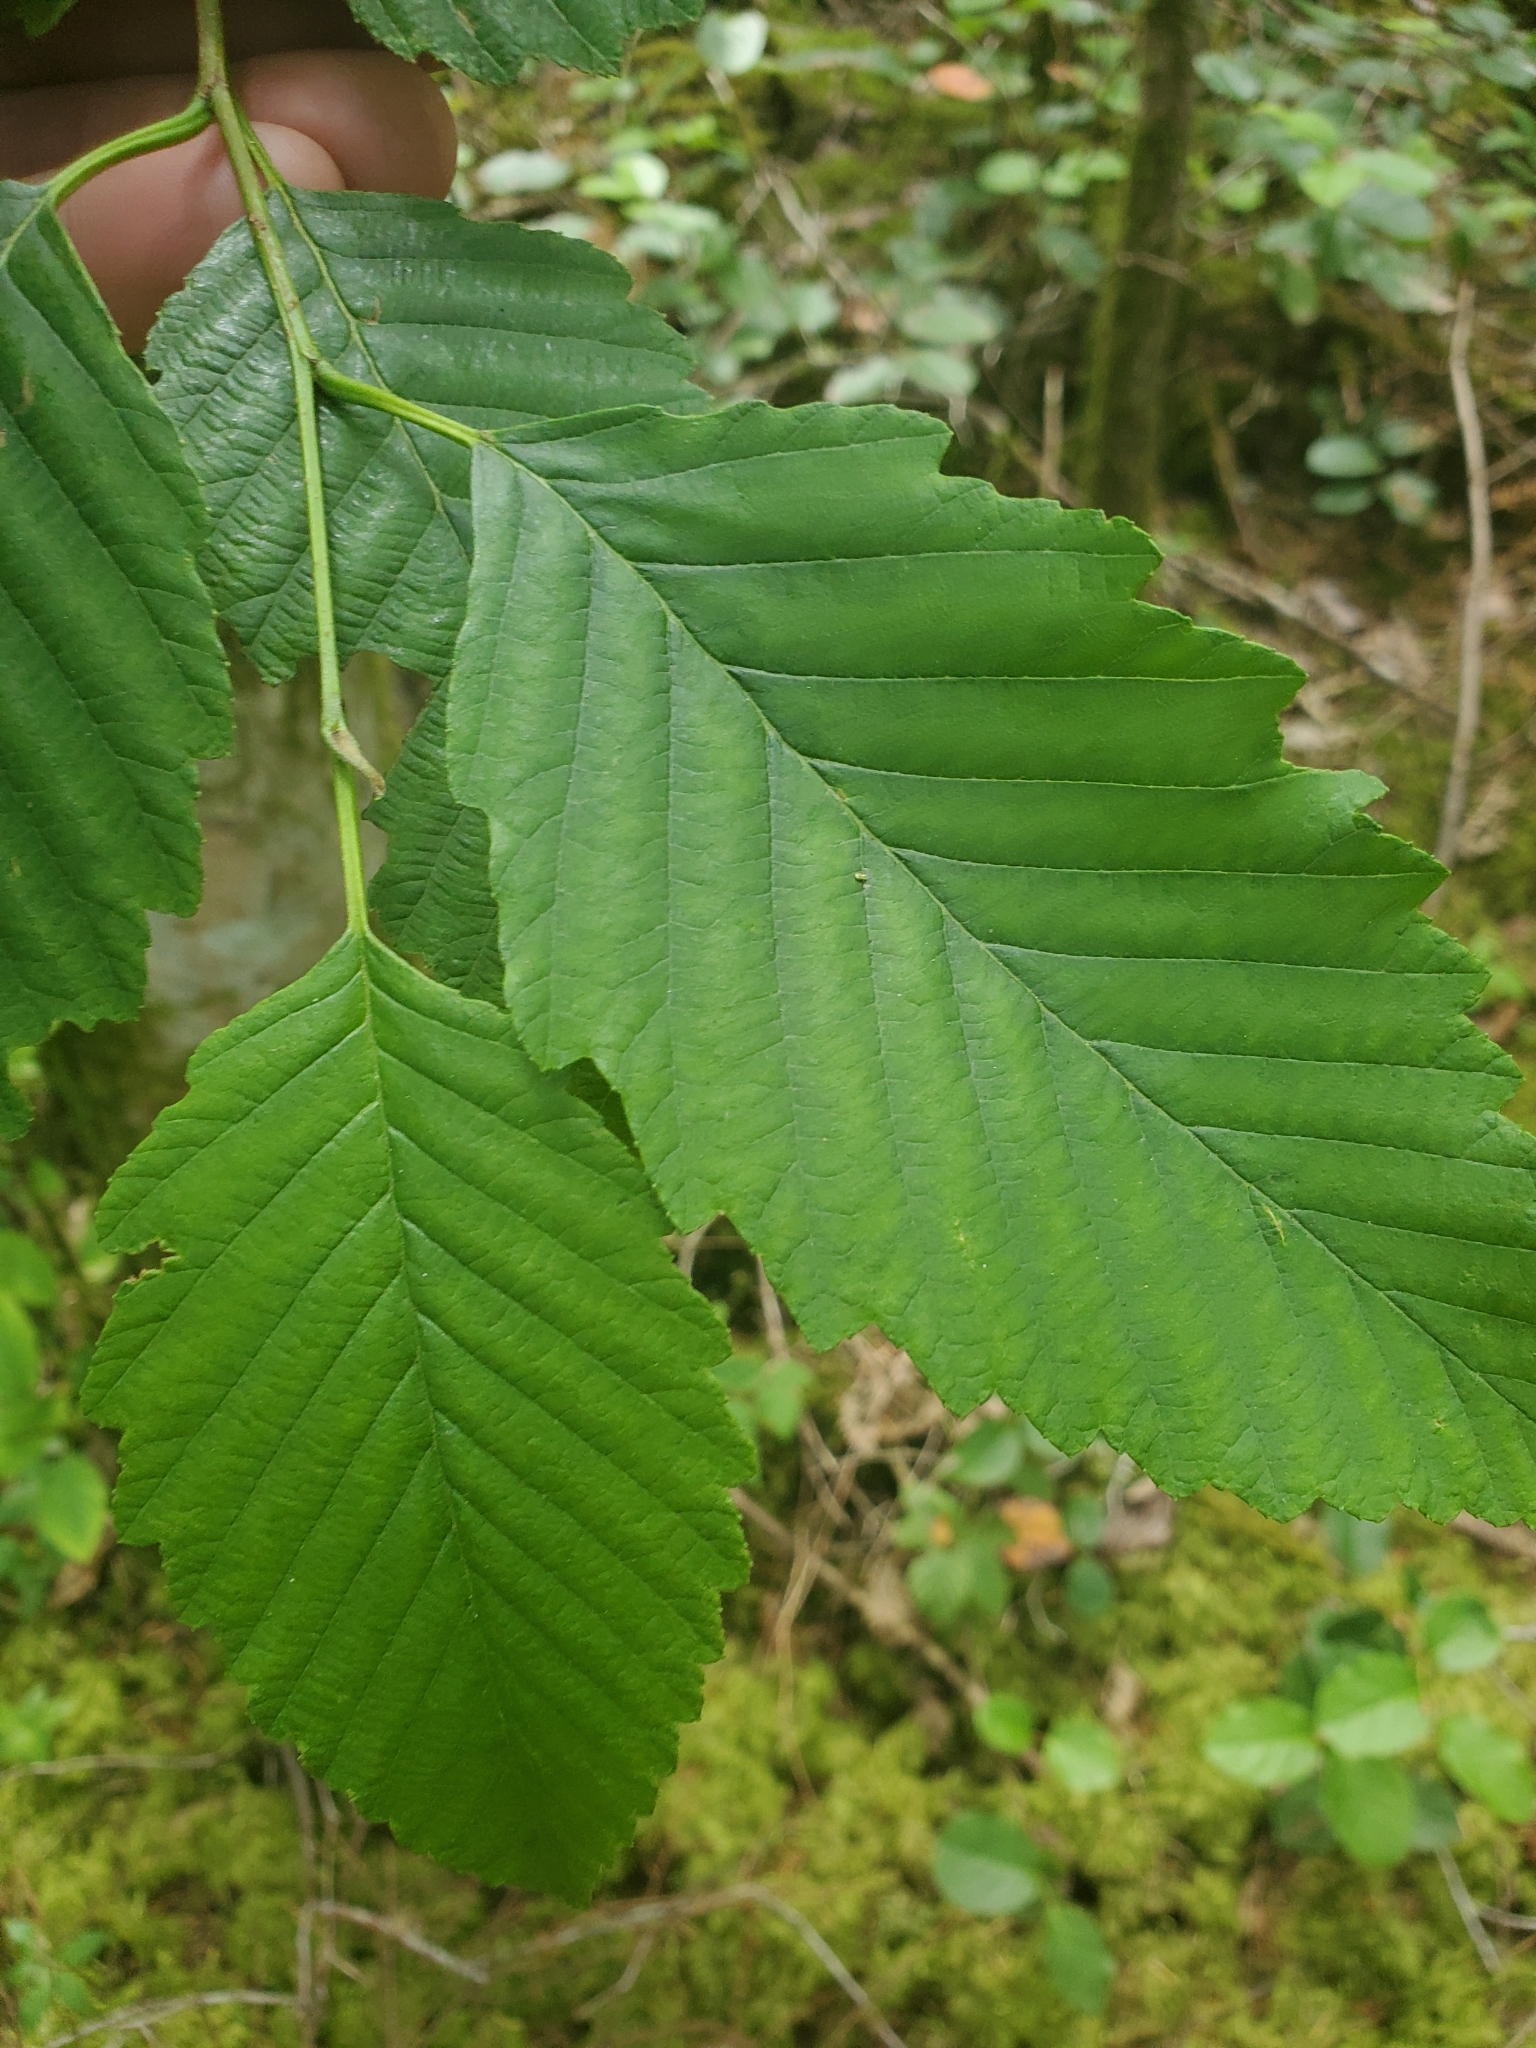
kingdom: Plantae
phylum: Tracheophyta
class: Magnoliopsida
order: Fagales
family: Betulaceae
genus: Alnus
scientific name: Alnus rubra
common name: Red alder
